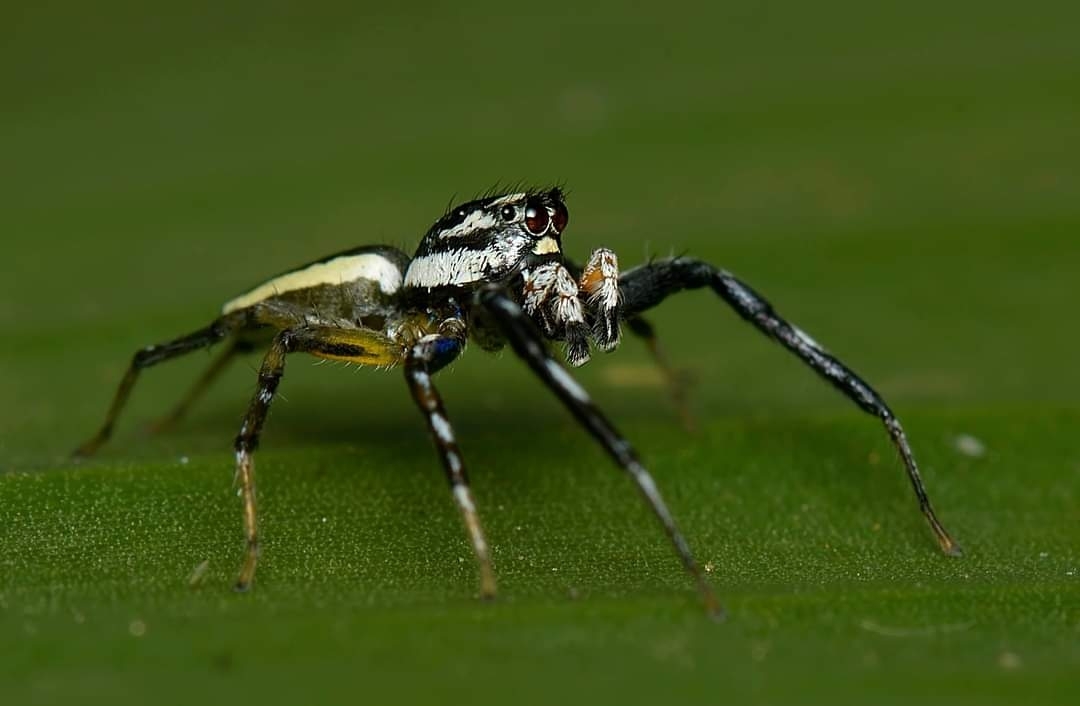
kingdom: Animalia
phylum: Arthropoda
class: Arachnida
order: Araneae
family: Salticidae
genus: Phintelloides
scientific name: Phintelloides versicolor
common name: Jumping spider
